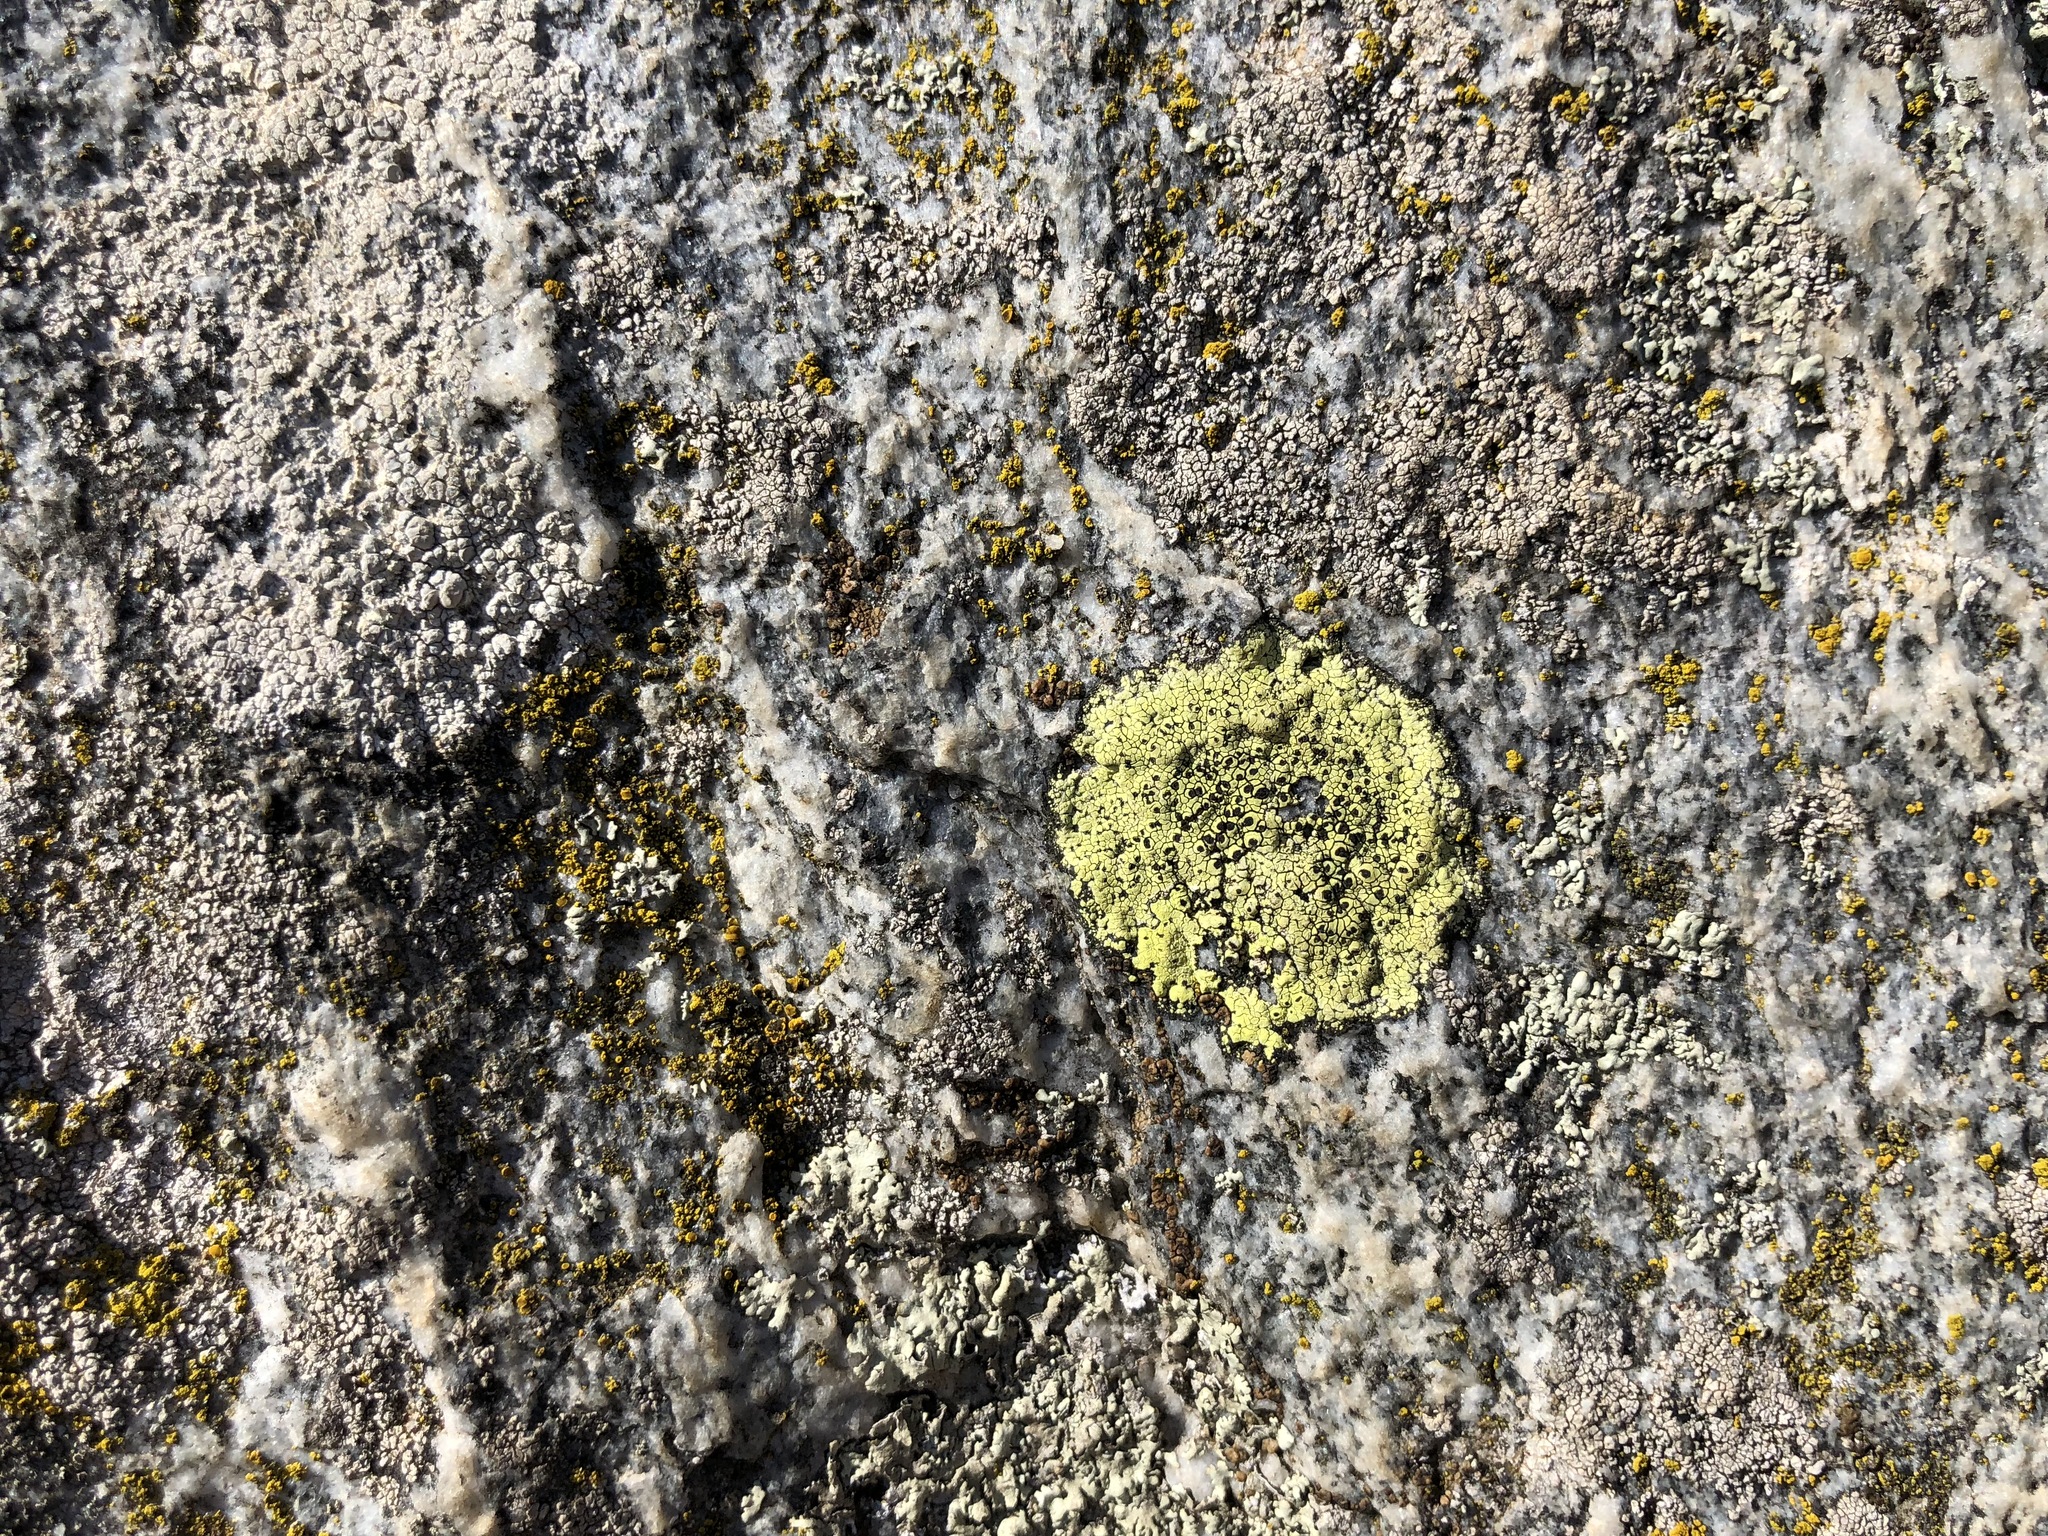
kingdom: Fungi
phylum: Ascomycota
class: Lecanoromycetes
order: Rhizocarpales
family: Rhizocarpaceae
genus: Rhizocarpon
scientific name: Rhizocarpon lecanorinum
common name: Crescent map lichen
